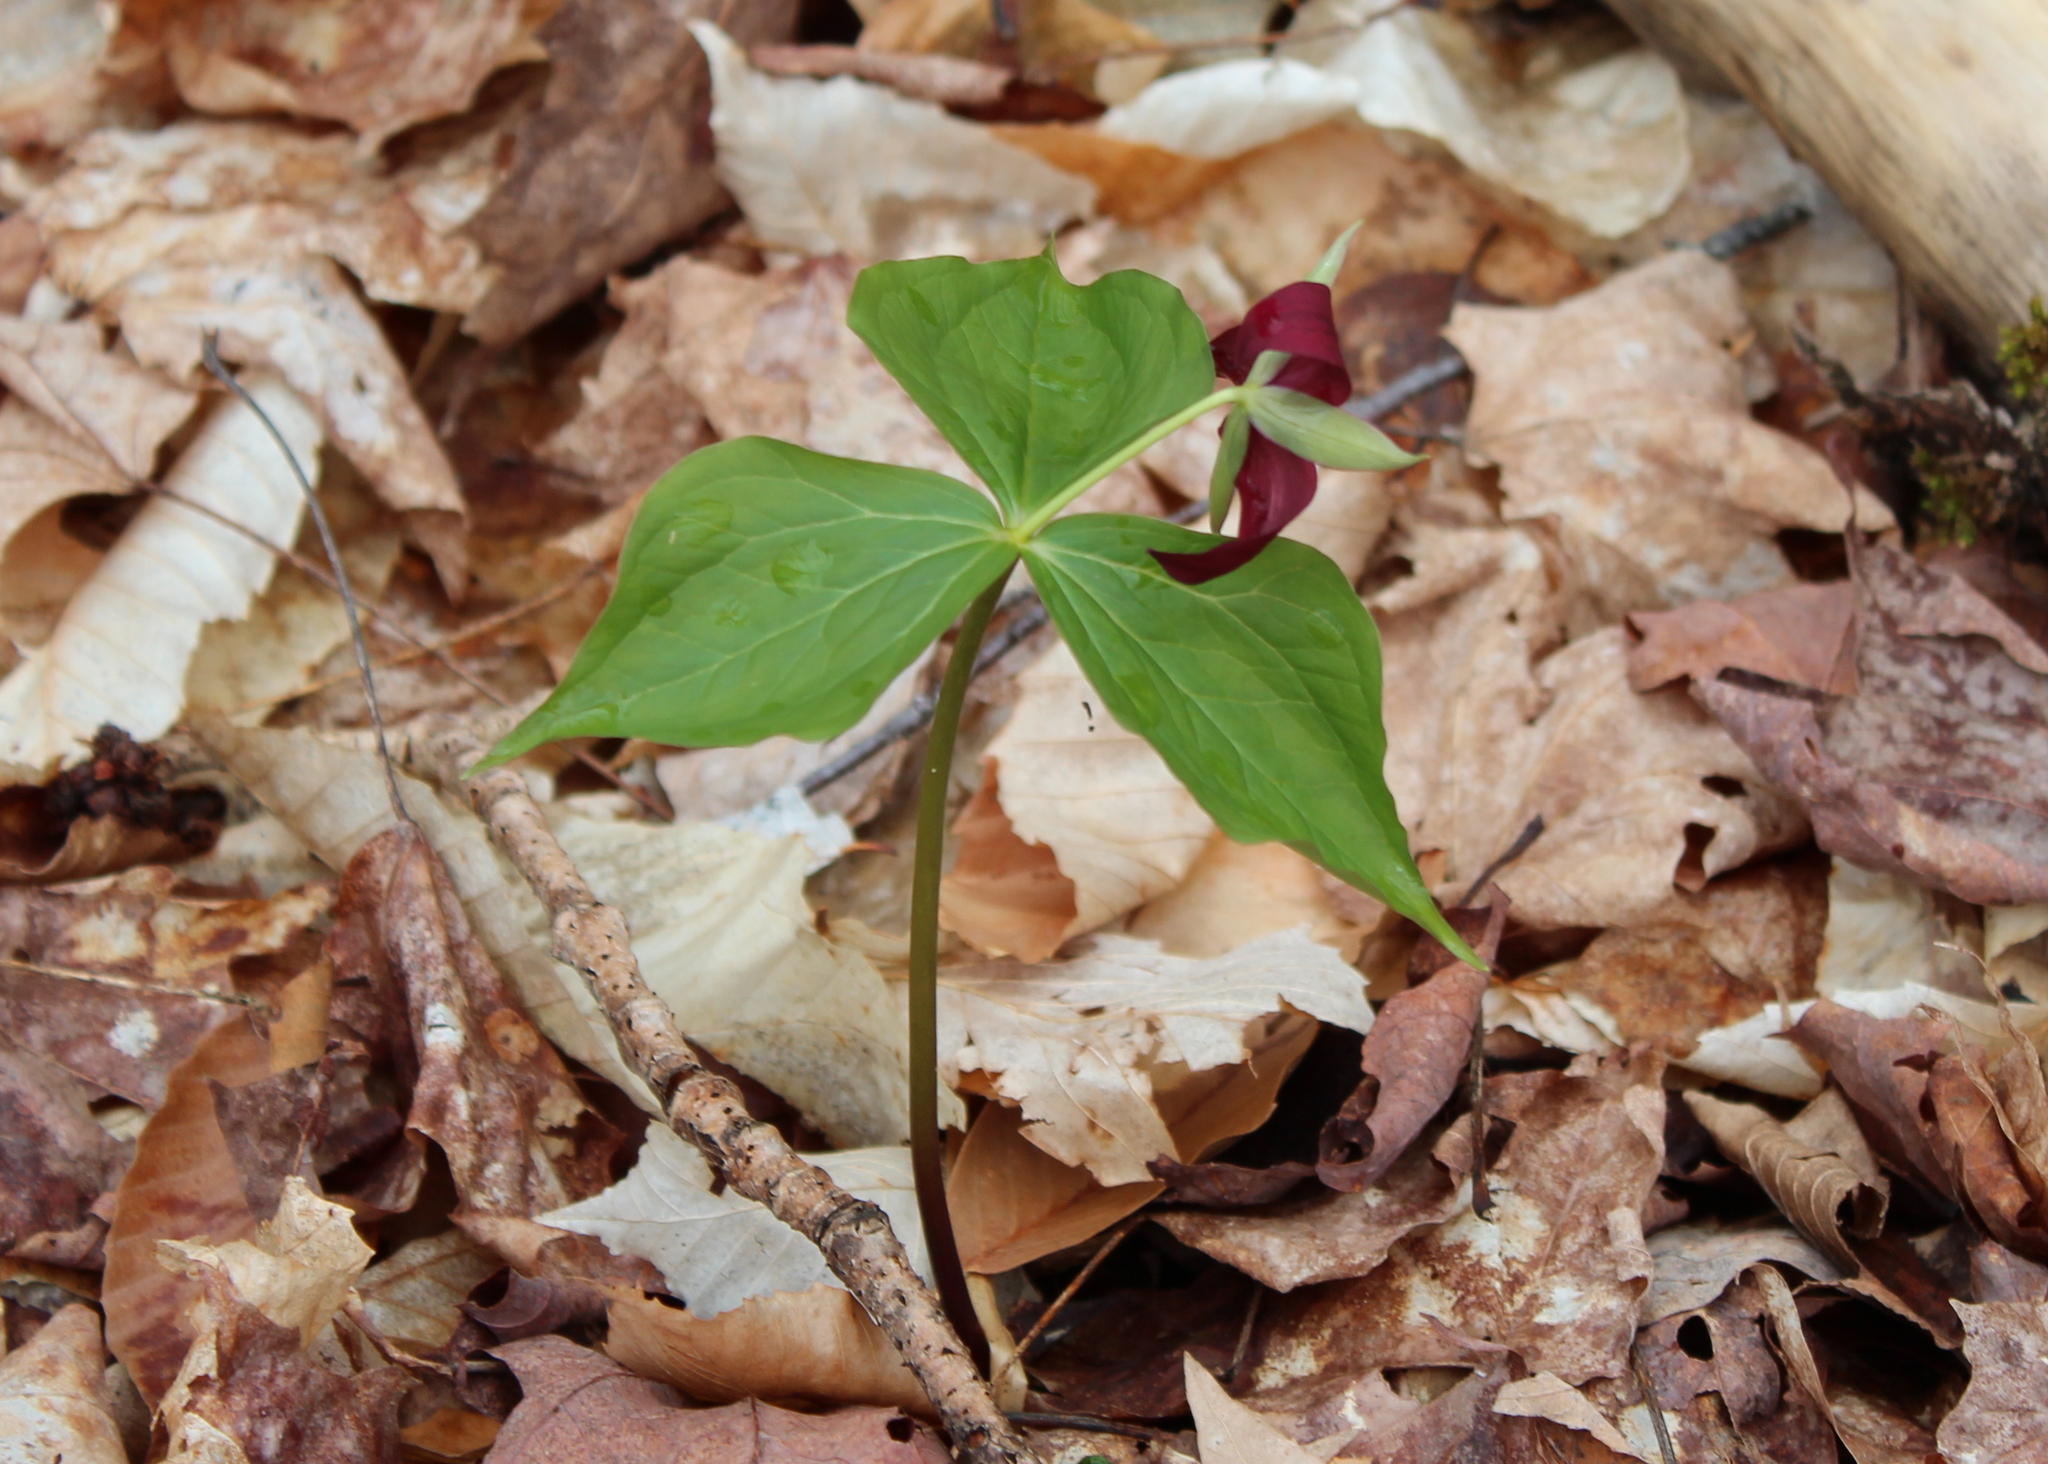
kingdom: Plantae
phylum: Tracheophyta
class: Liliopsida
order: Liliales
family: Melanthiaceae
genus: Trillium
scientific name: Trillium erectum
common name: Purple trillium
